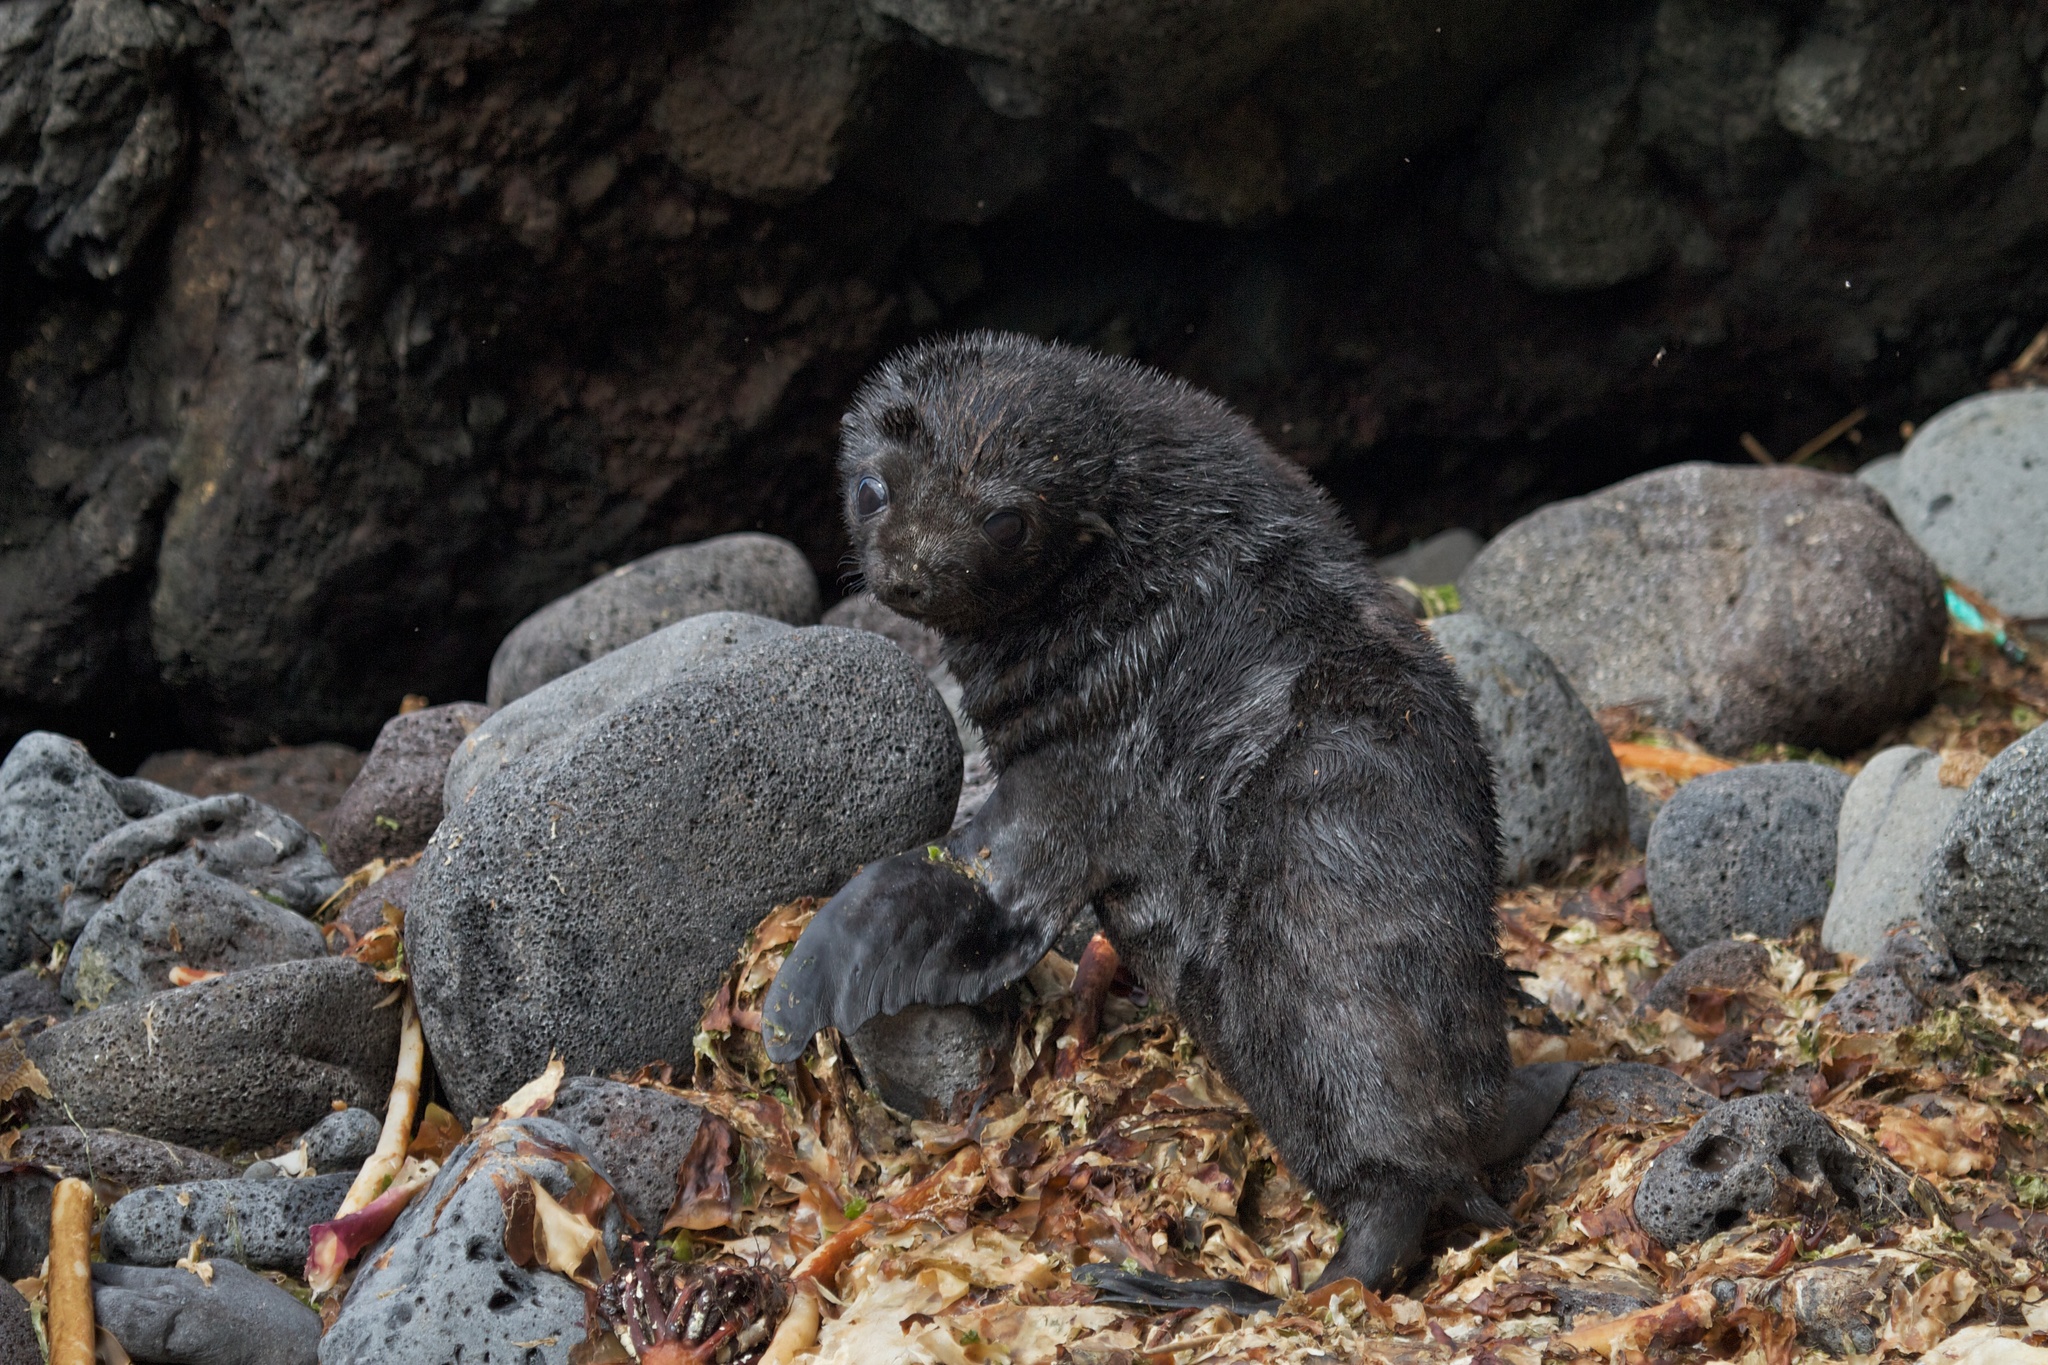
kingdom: Animalia
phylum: Chordata
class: Mammalia
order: Carnivora
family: Otariidae
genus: Arctocephalus
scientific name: Arctocephalus tropicalis
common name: Subantarctic fur seal
